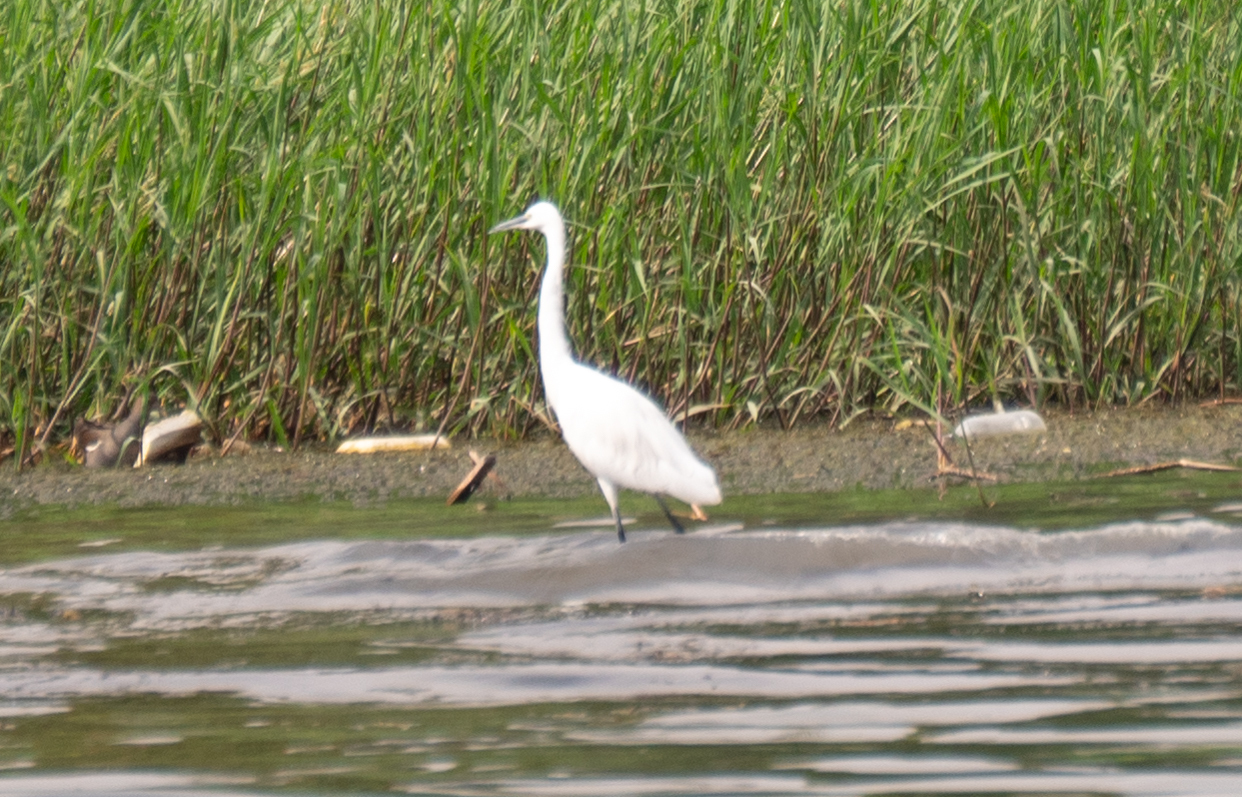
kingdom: Animalia
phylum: Chordata
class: Aves
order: Pelecaniformes
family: Ardeidae
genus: Egretta
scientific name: Egretta garzetta
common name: Little egret
